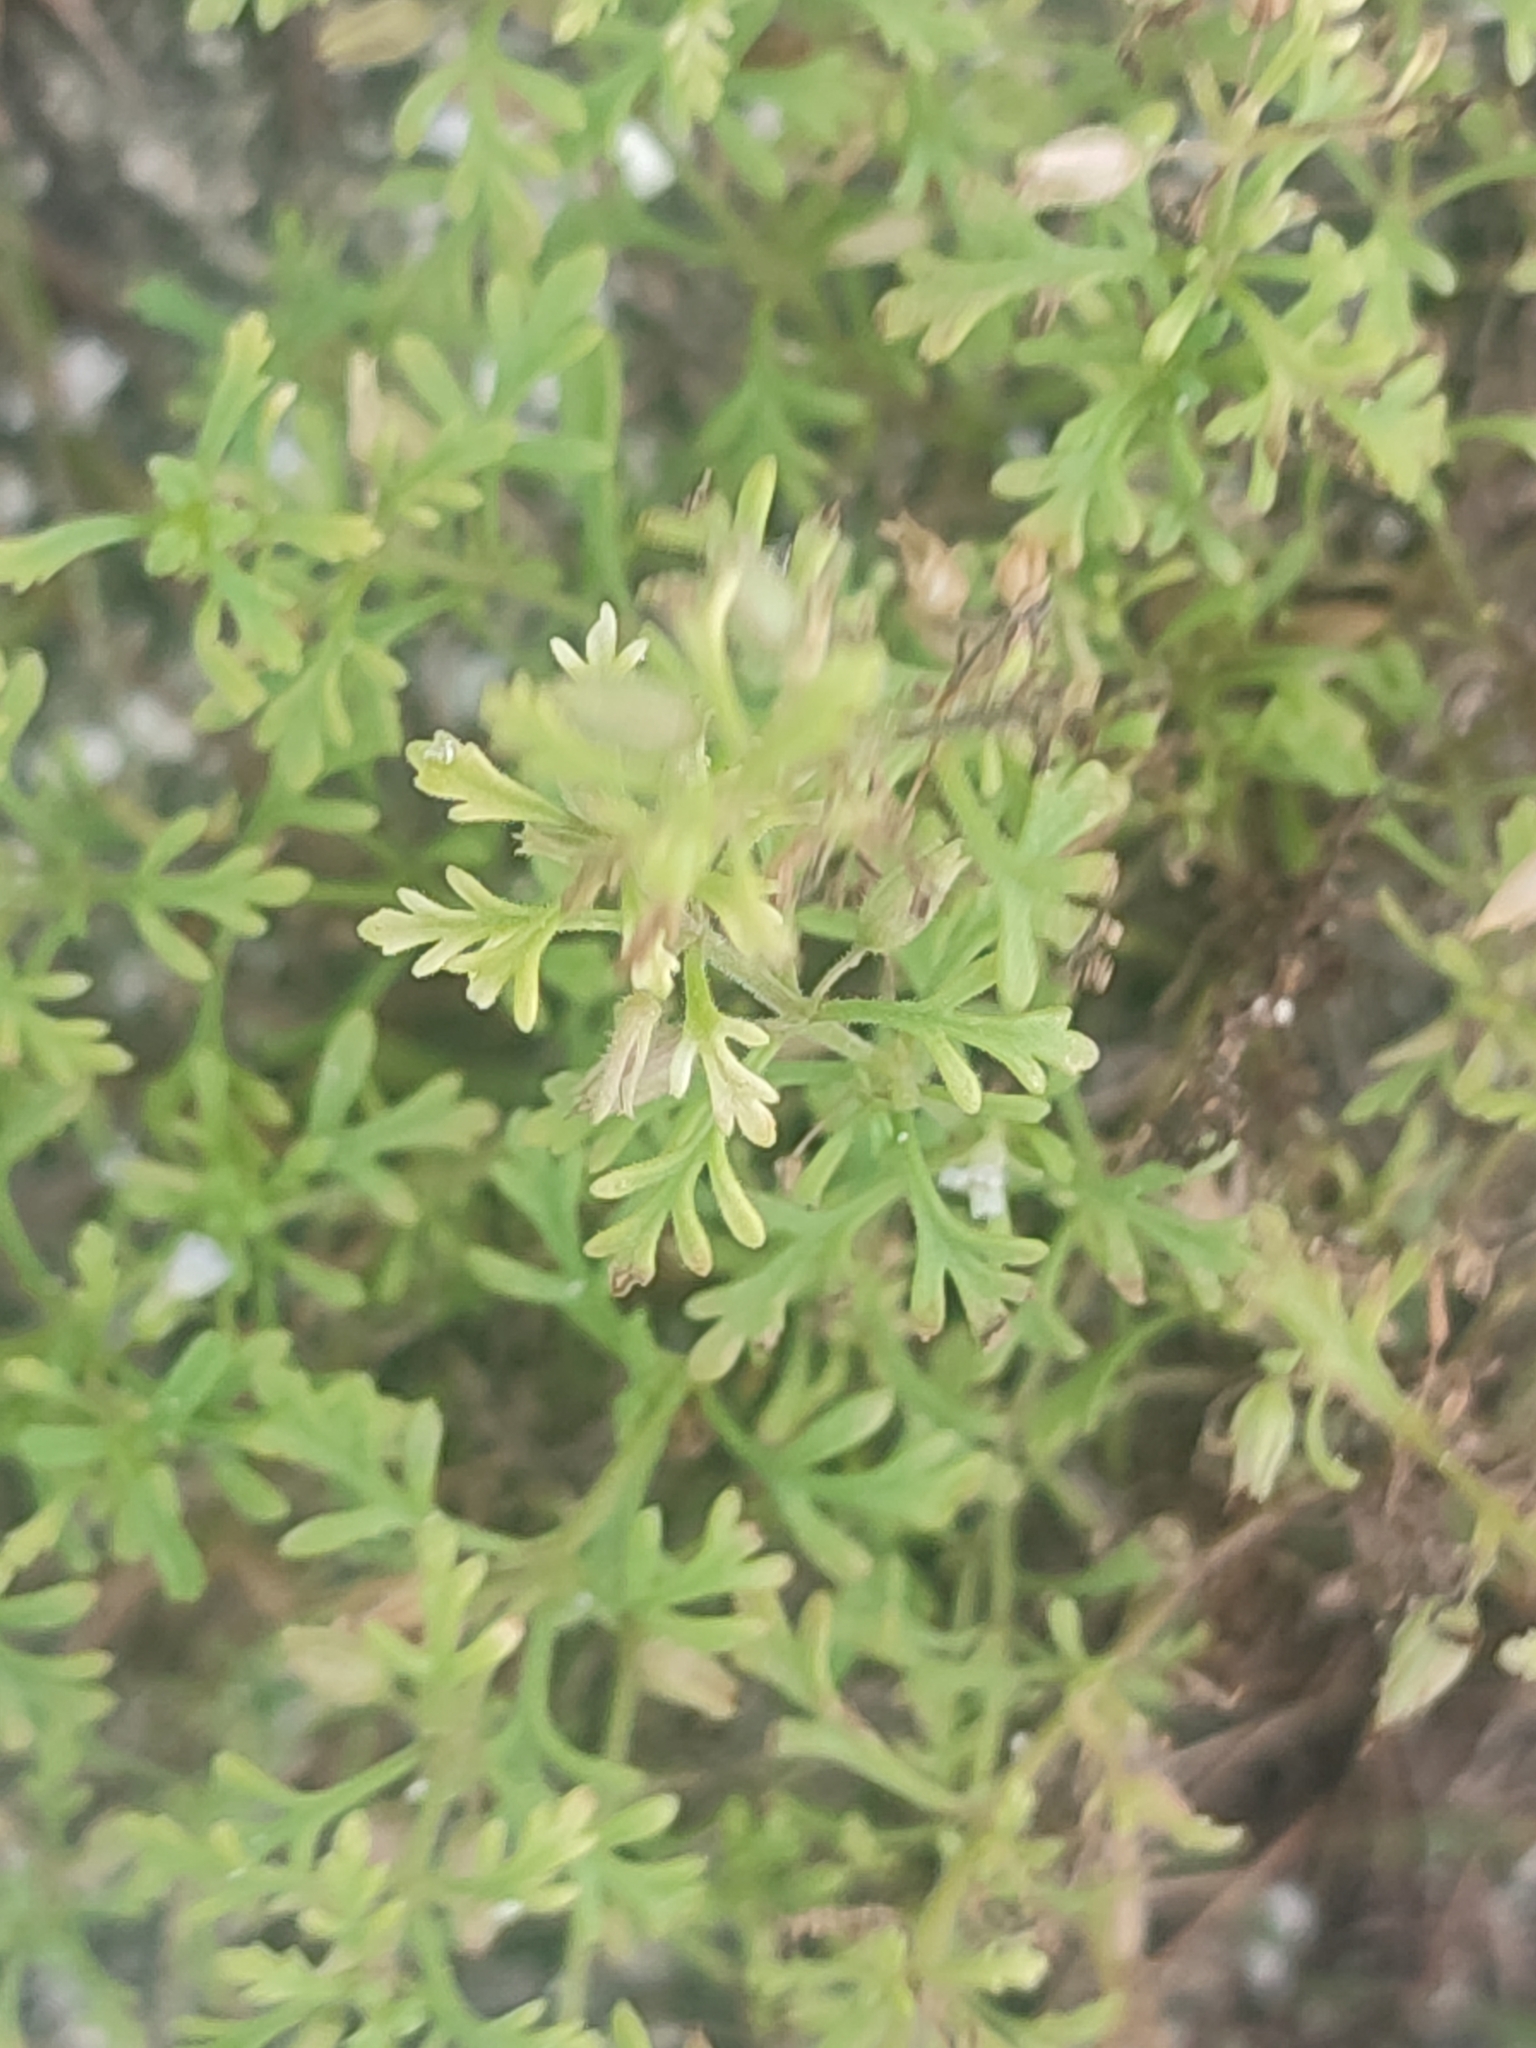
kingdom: Plantae
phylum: Tracheophyta
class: Magnoliopsida
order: Lamiales
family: Plantaginaceae
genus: Leucospora
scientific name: Leucospora multifida
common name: Narrow-leaf paleseed
